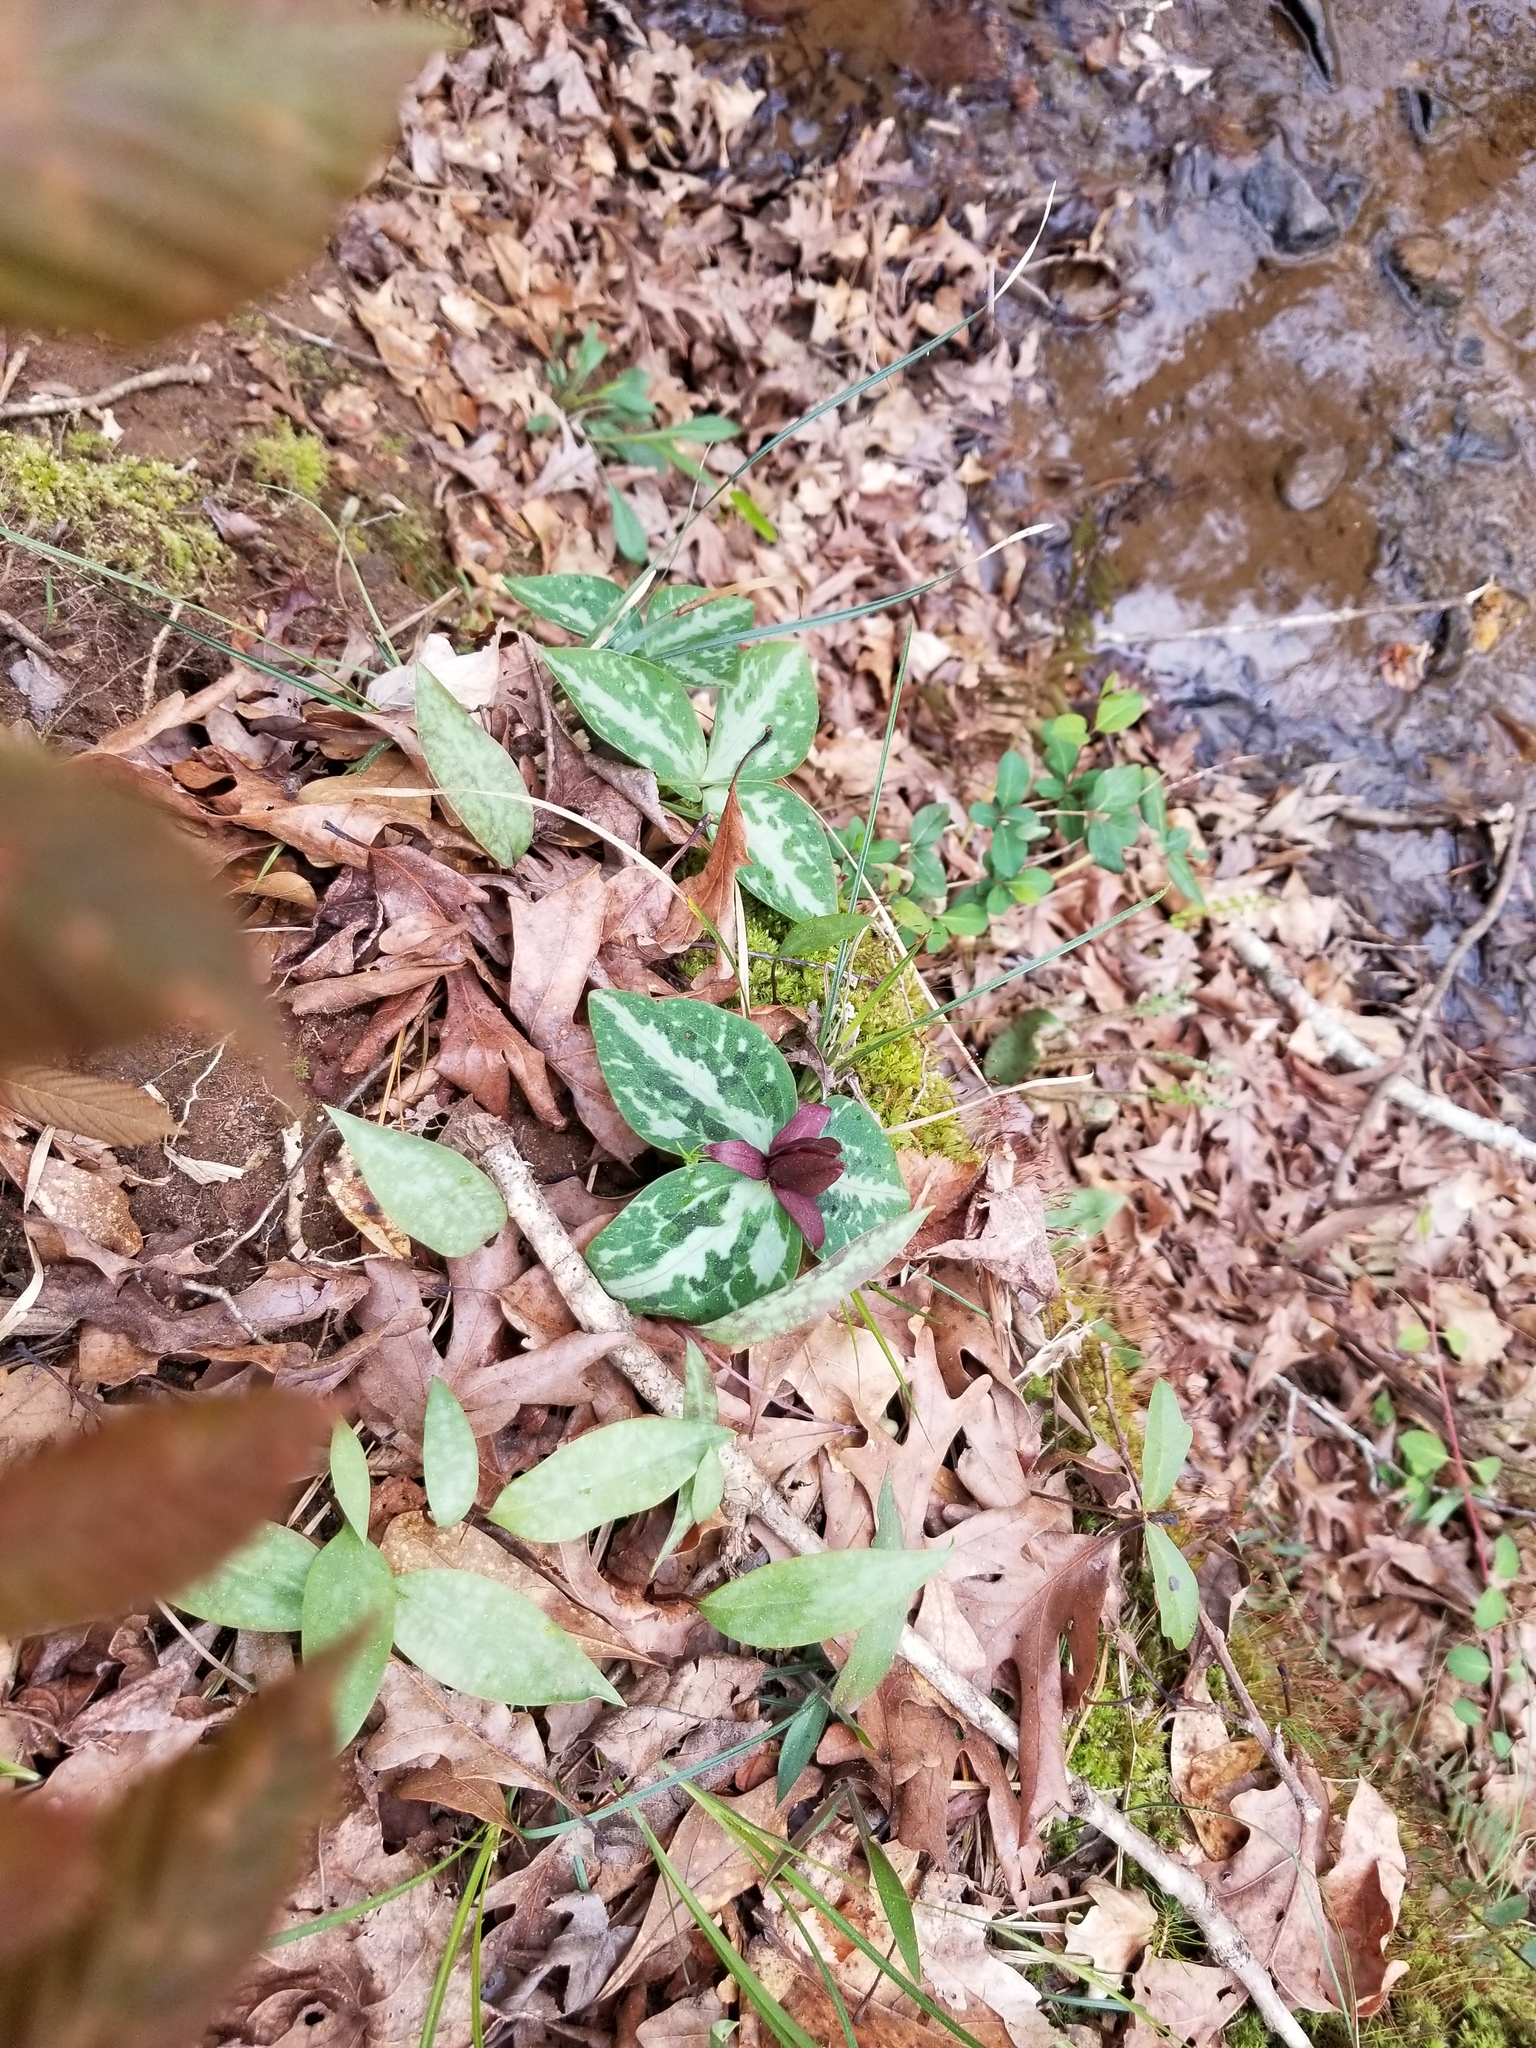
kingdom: Plantae
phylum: Tracheophyta
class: Liliopsida
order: Liliales
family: Melanthiaceae
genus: Trillium
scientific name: Trillium reliquum
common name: Relict trillium
